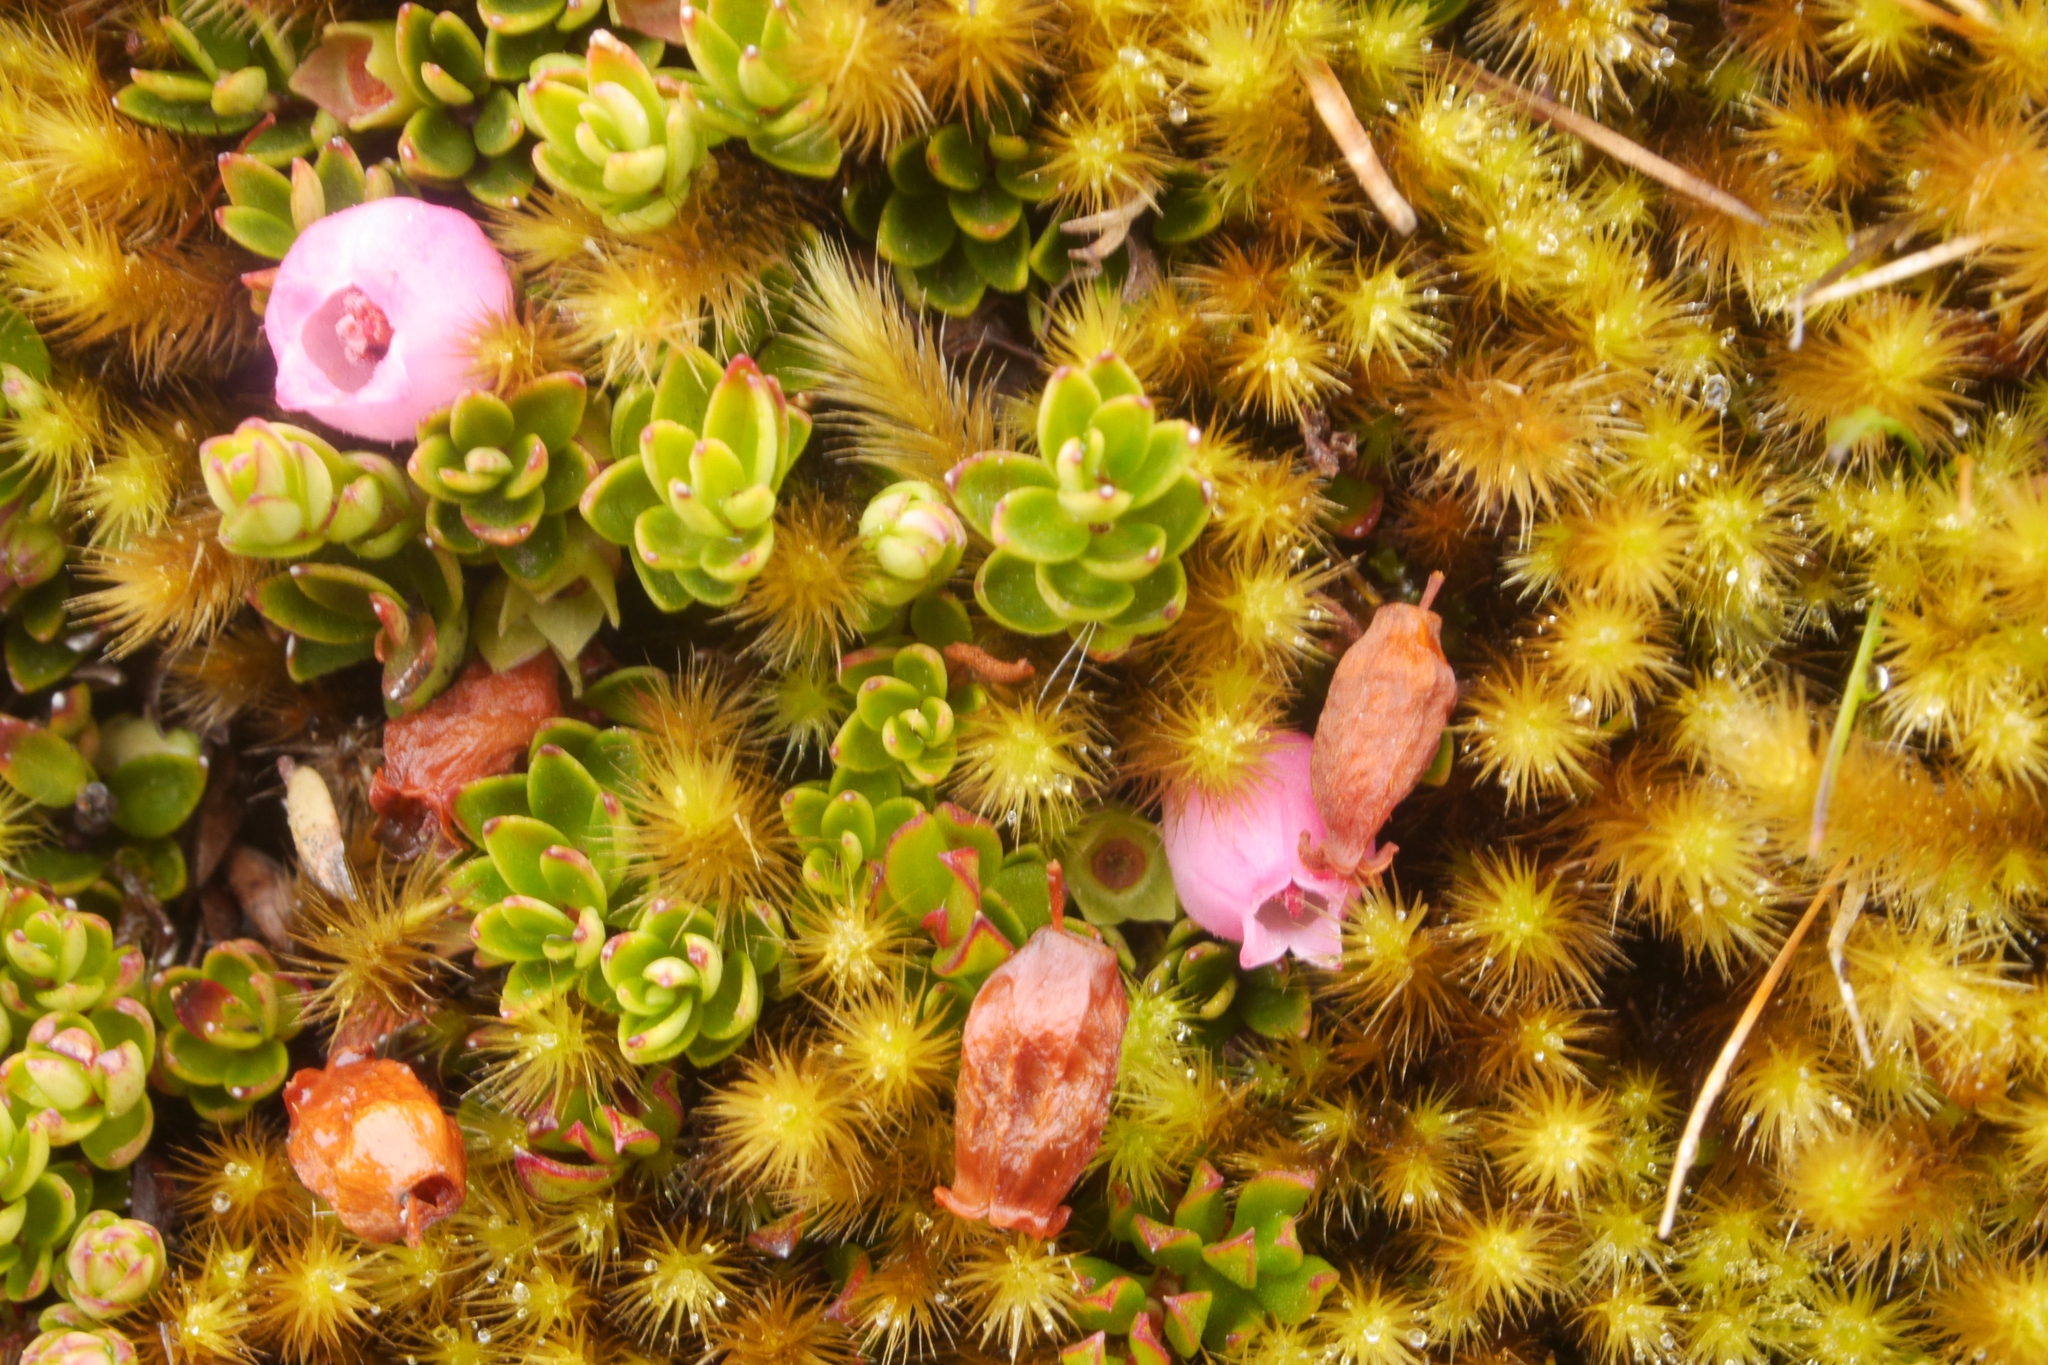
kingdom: Plantae
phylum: Tracheophyta
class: Magnoliopsida
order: Ericales
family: Ericaceae
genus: Disterigma
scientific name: Disterigma empetrifolium
